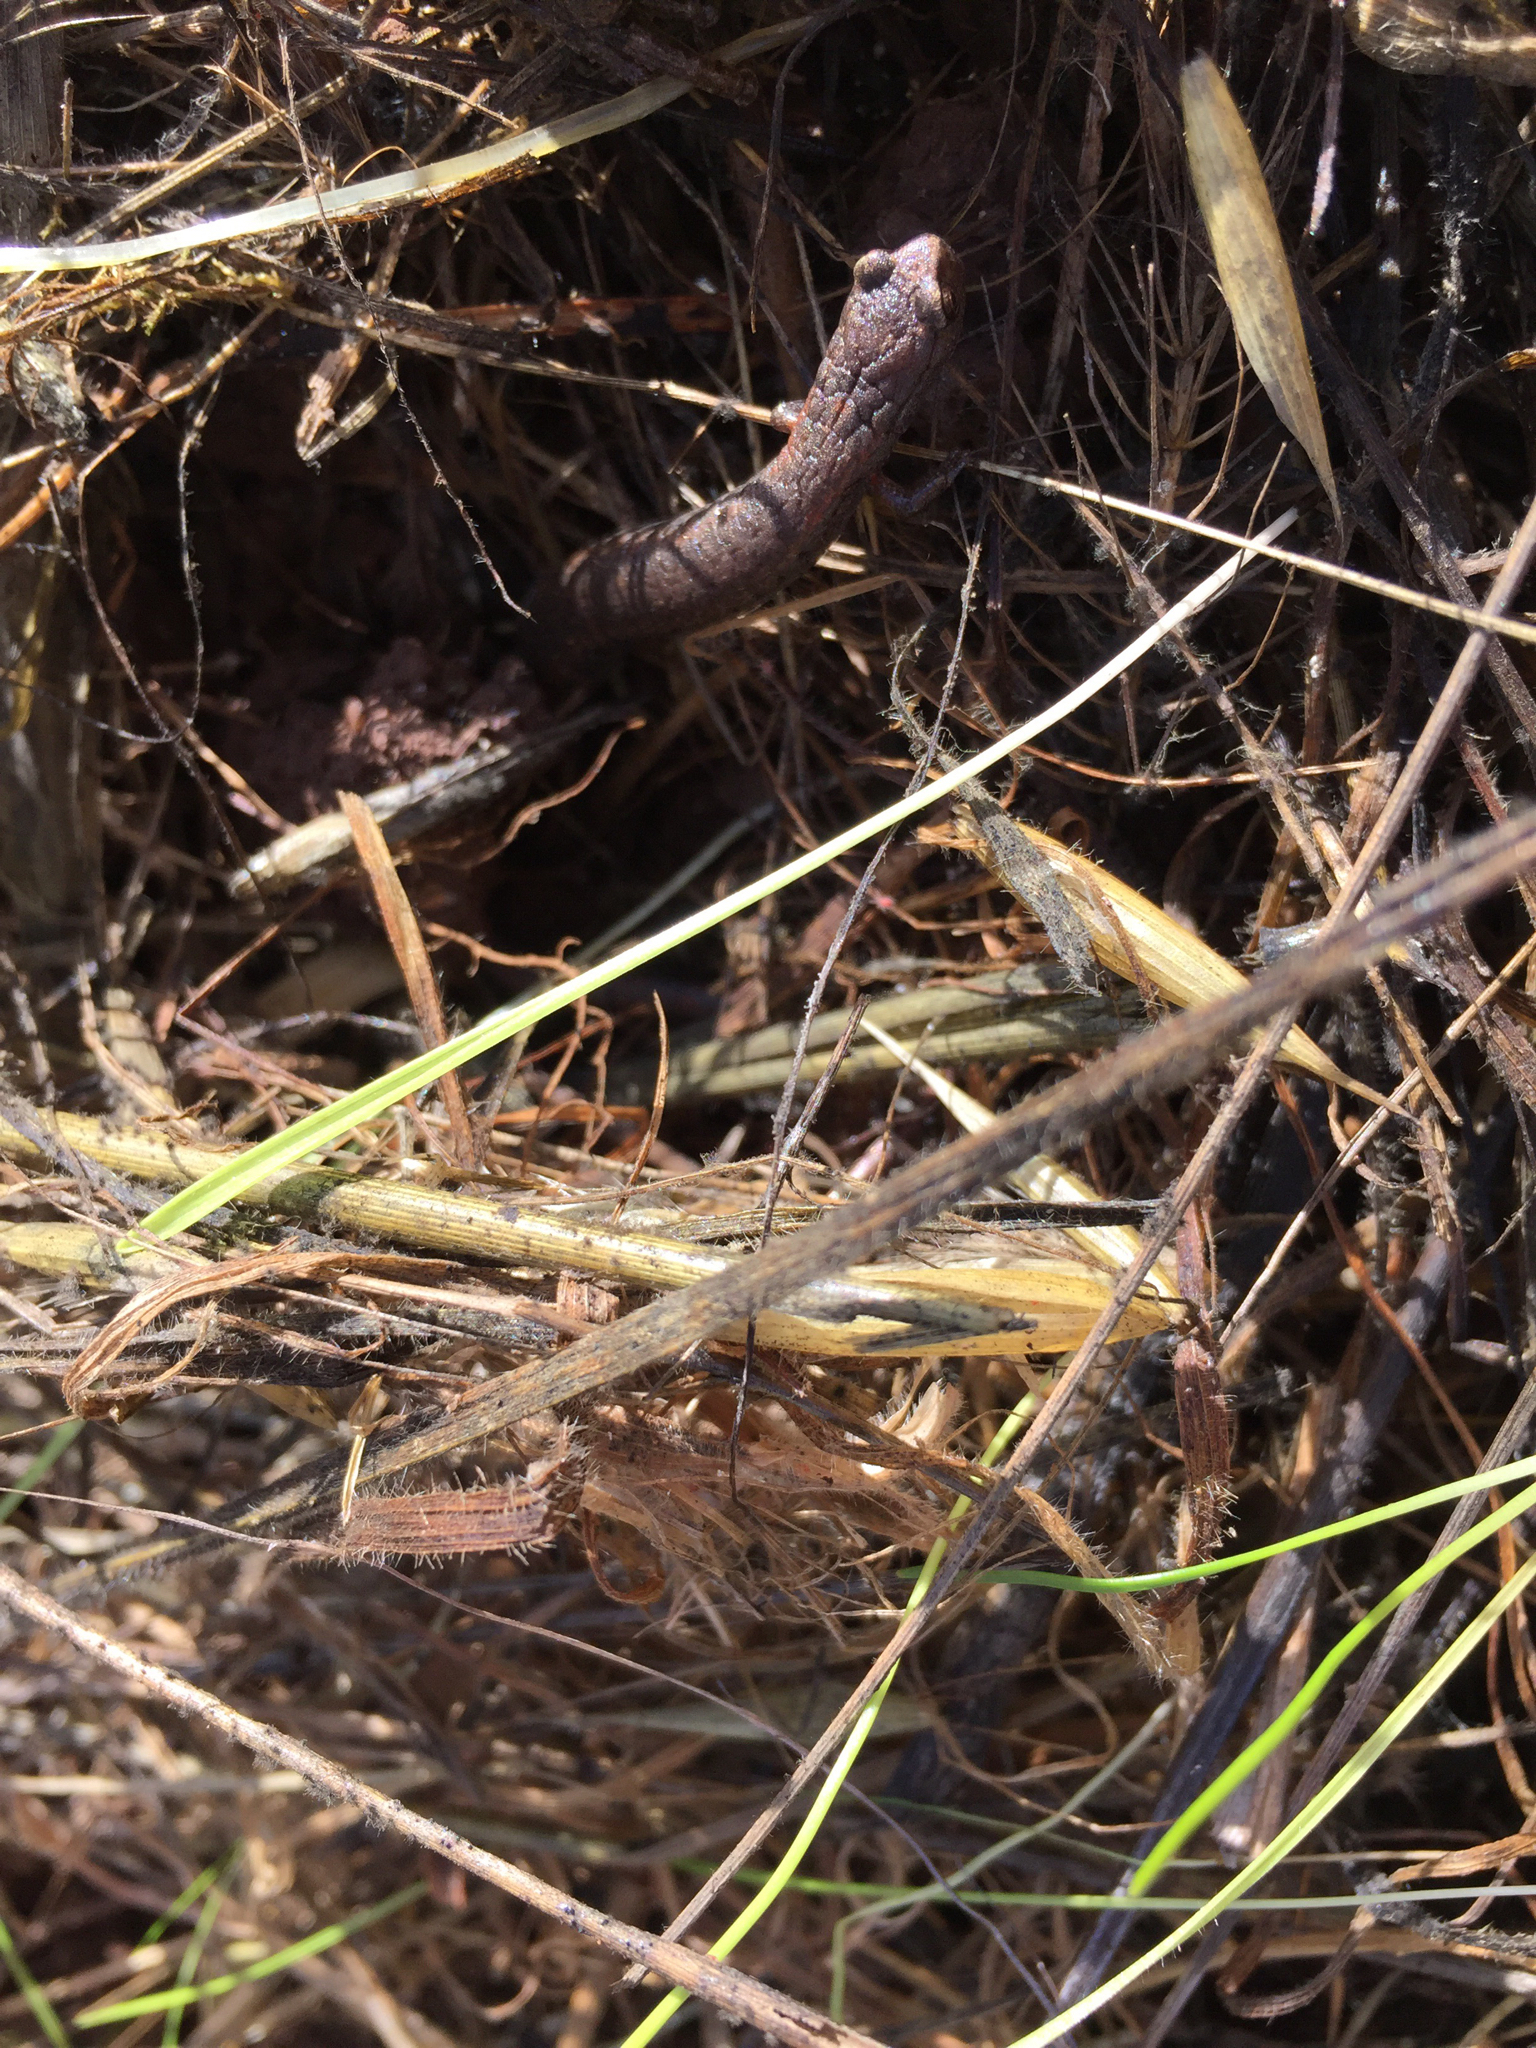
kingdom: Animalia
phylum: Chordata
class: Amphibia
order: Caudata
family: Plethodontidae
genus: Batrachoseps
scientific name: Batrachoseps attenuatus
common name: California slender salamander
